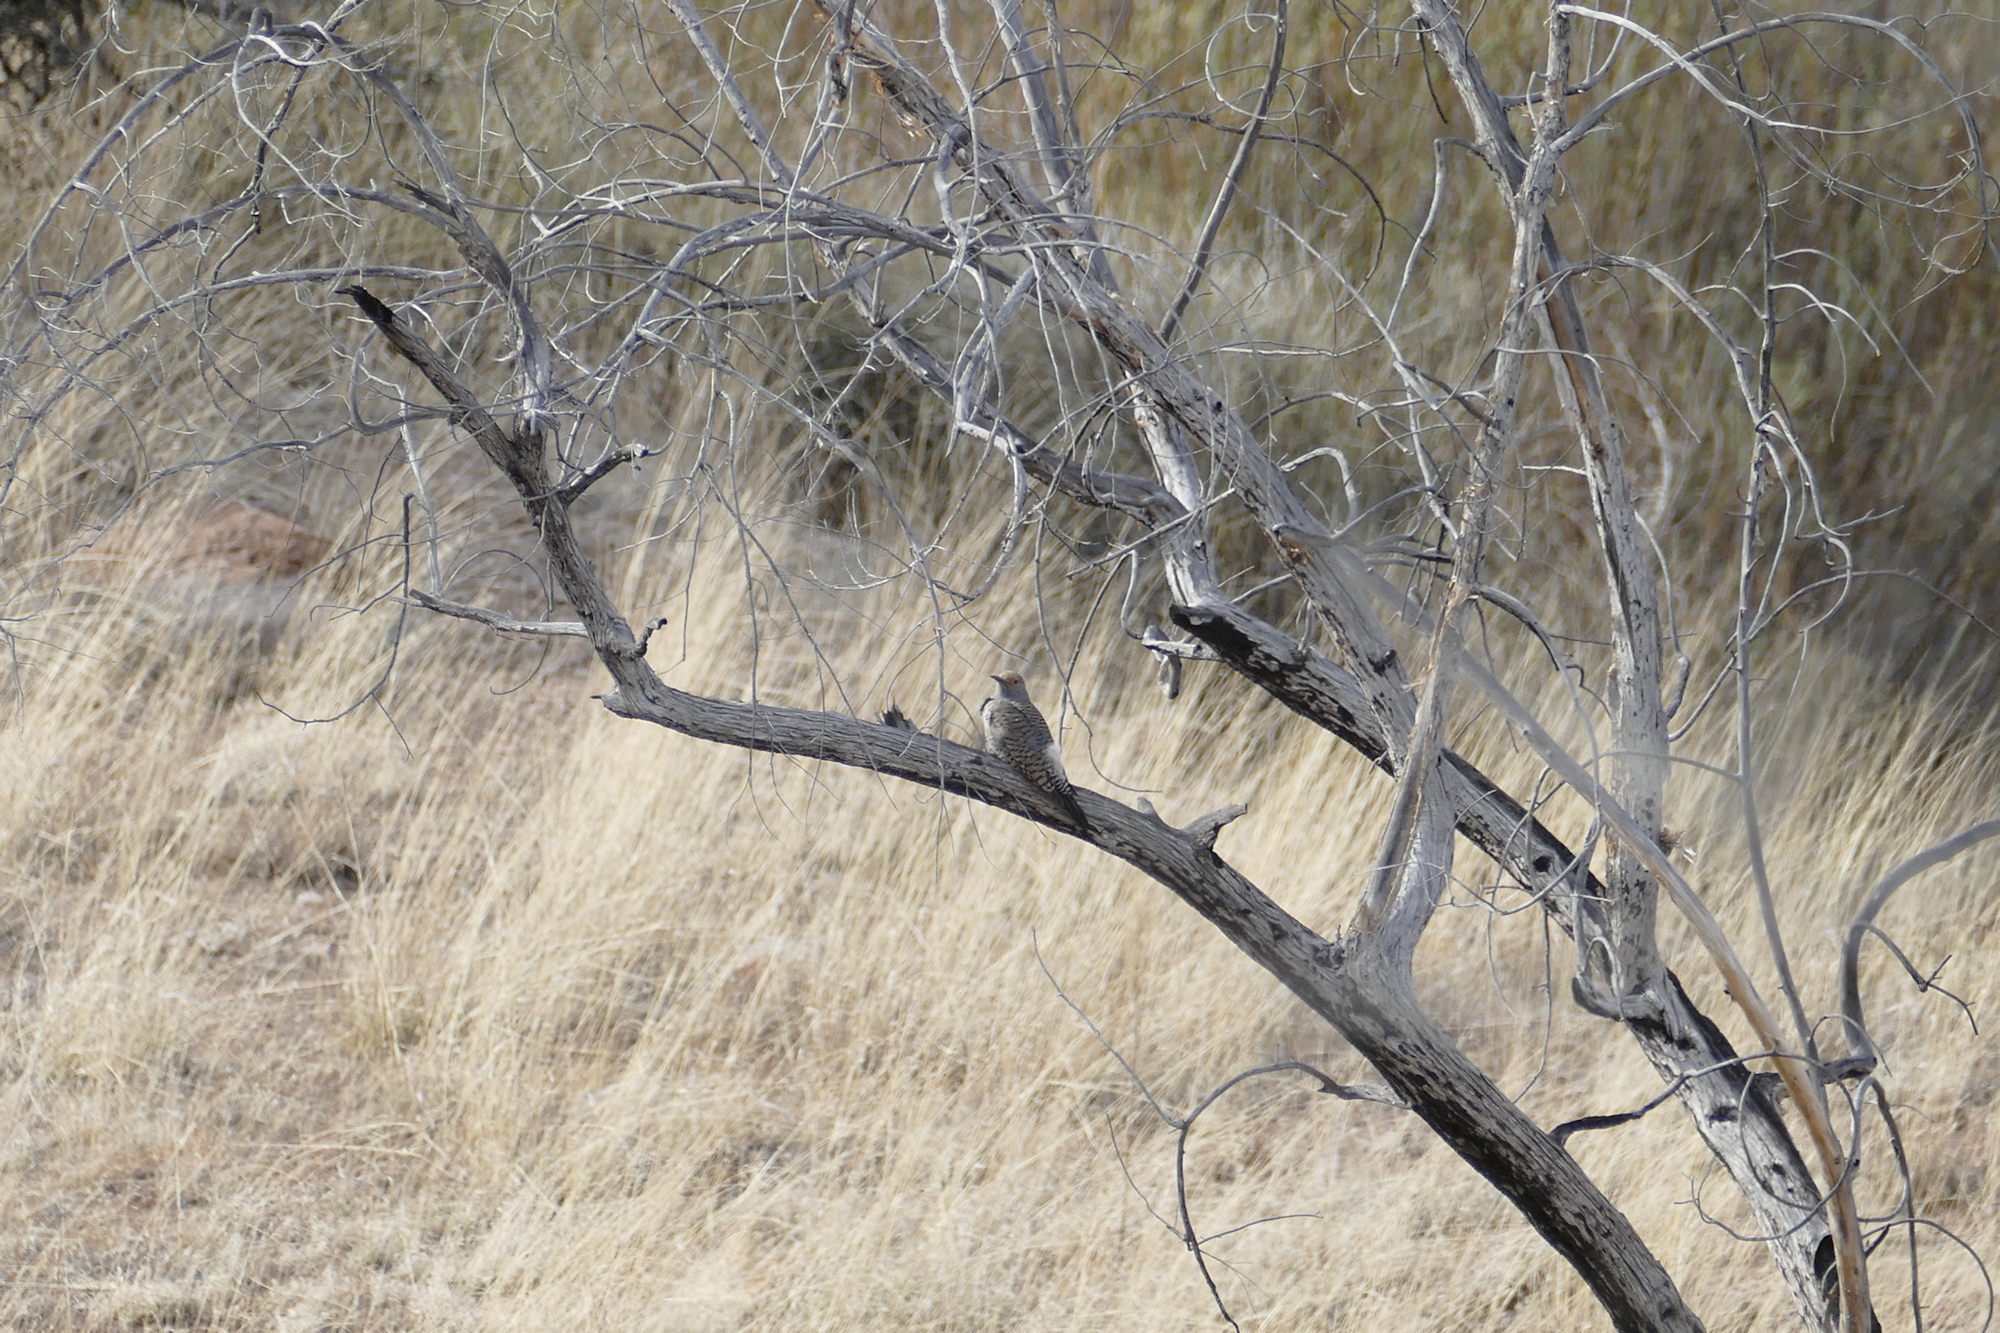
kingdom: Animalia
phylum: Chordata
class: Aves
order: Piciformes
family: Picidae
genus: Colaptes
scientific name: Colaptes auratus
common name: Northern flicker
